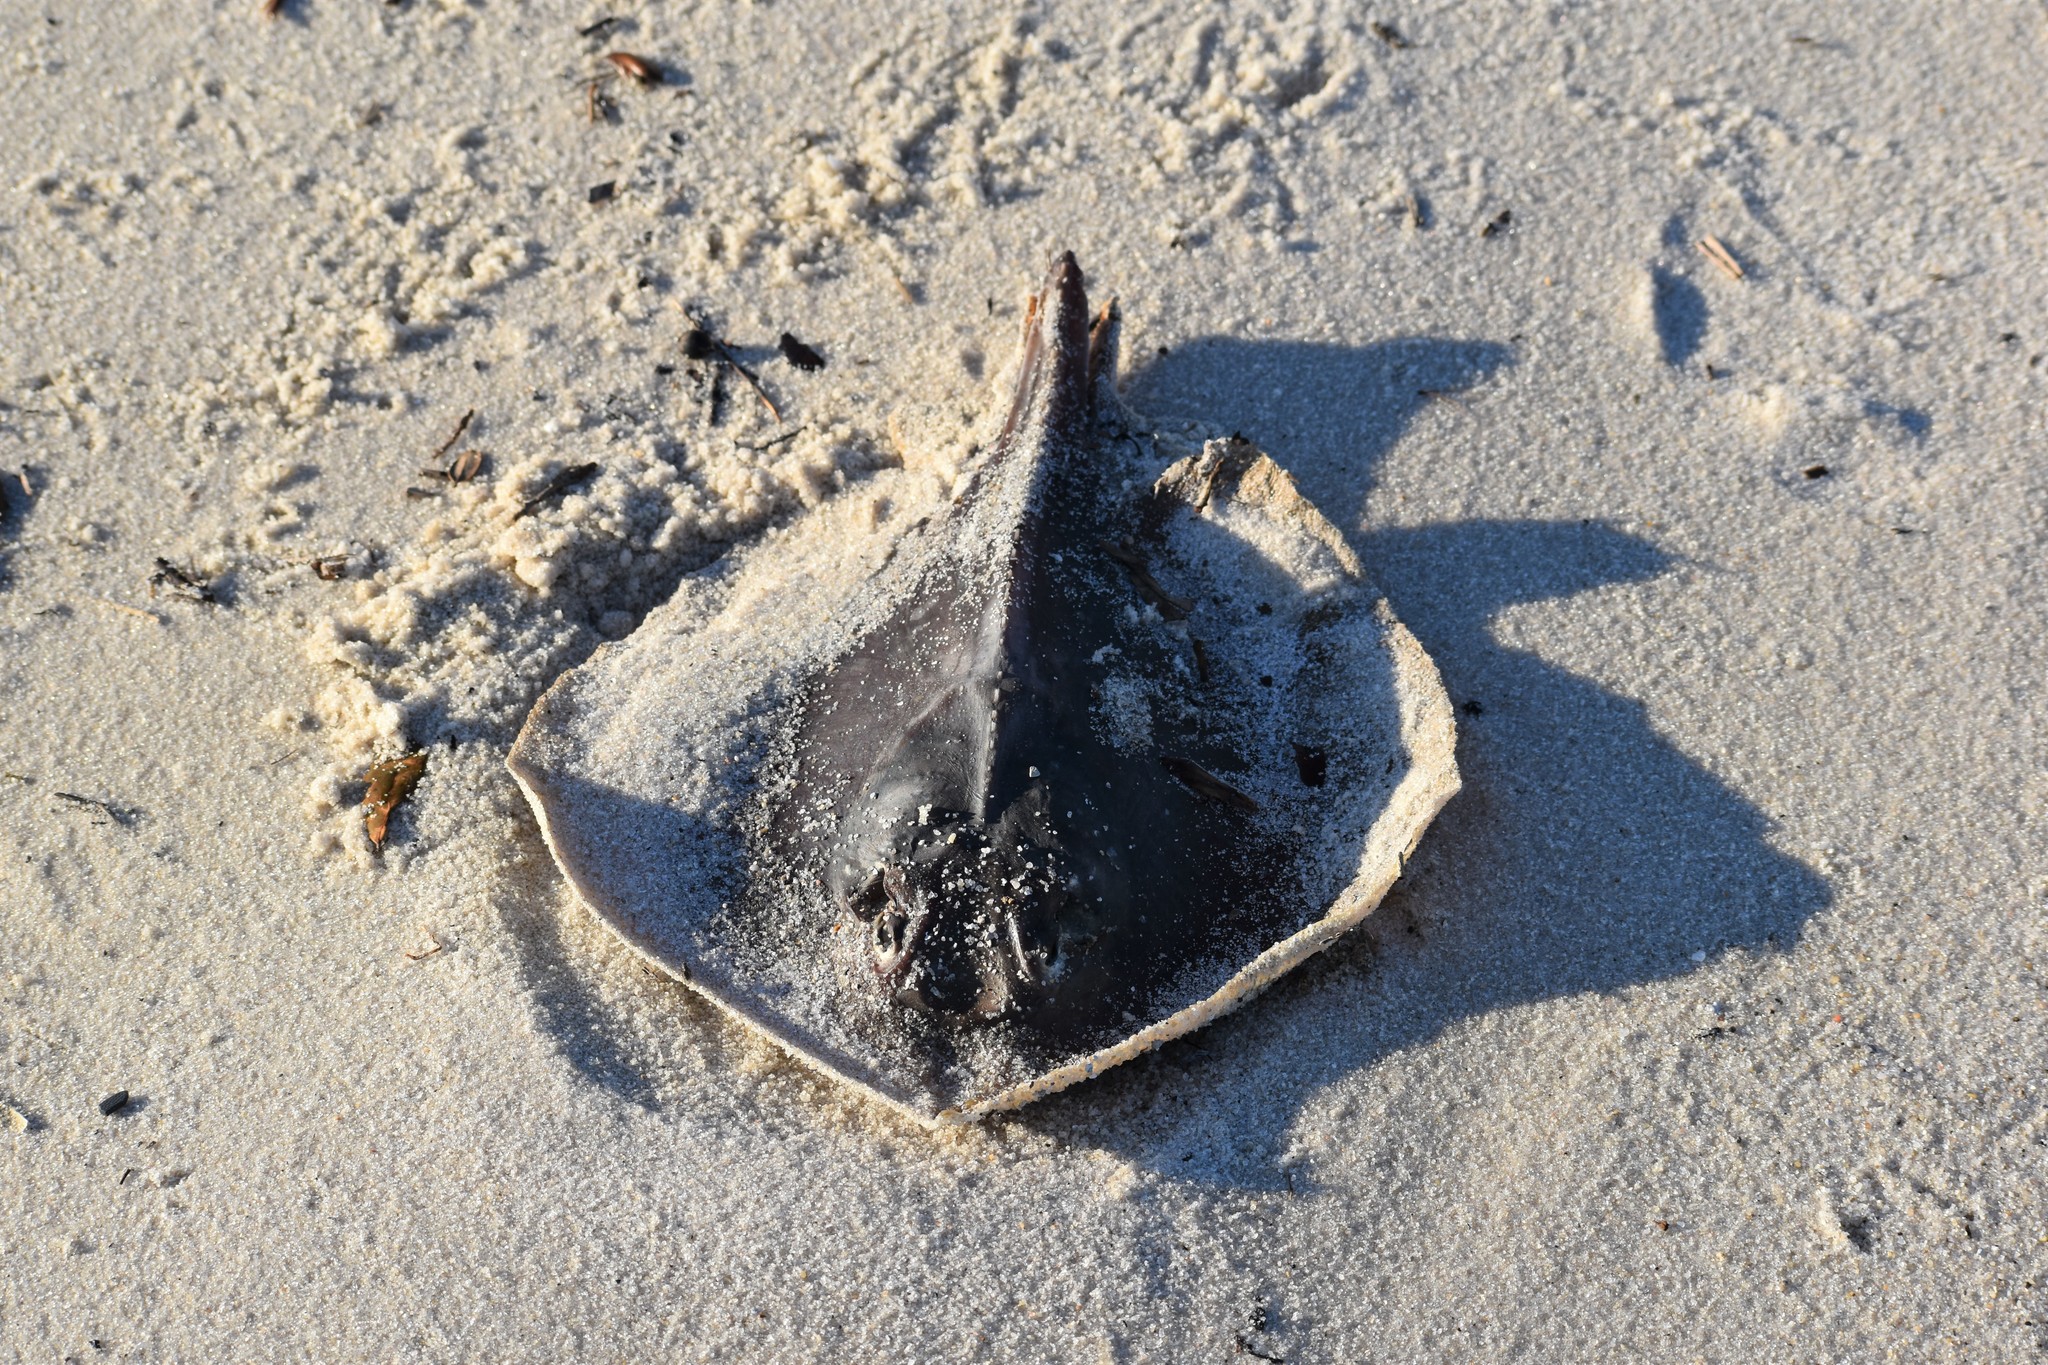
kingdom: Animalia
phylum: Chordata
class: Elasmobranchii
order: Myliobatiformes
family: Dasyatidae
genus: Hypanus
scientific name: Hypanus sabinus
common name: Atlantic stingray
